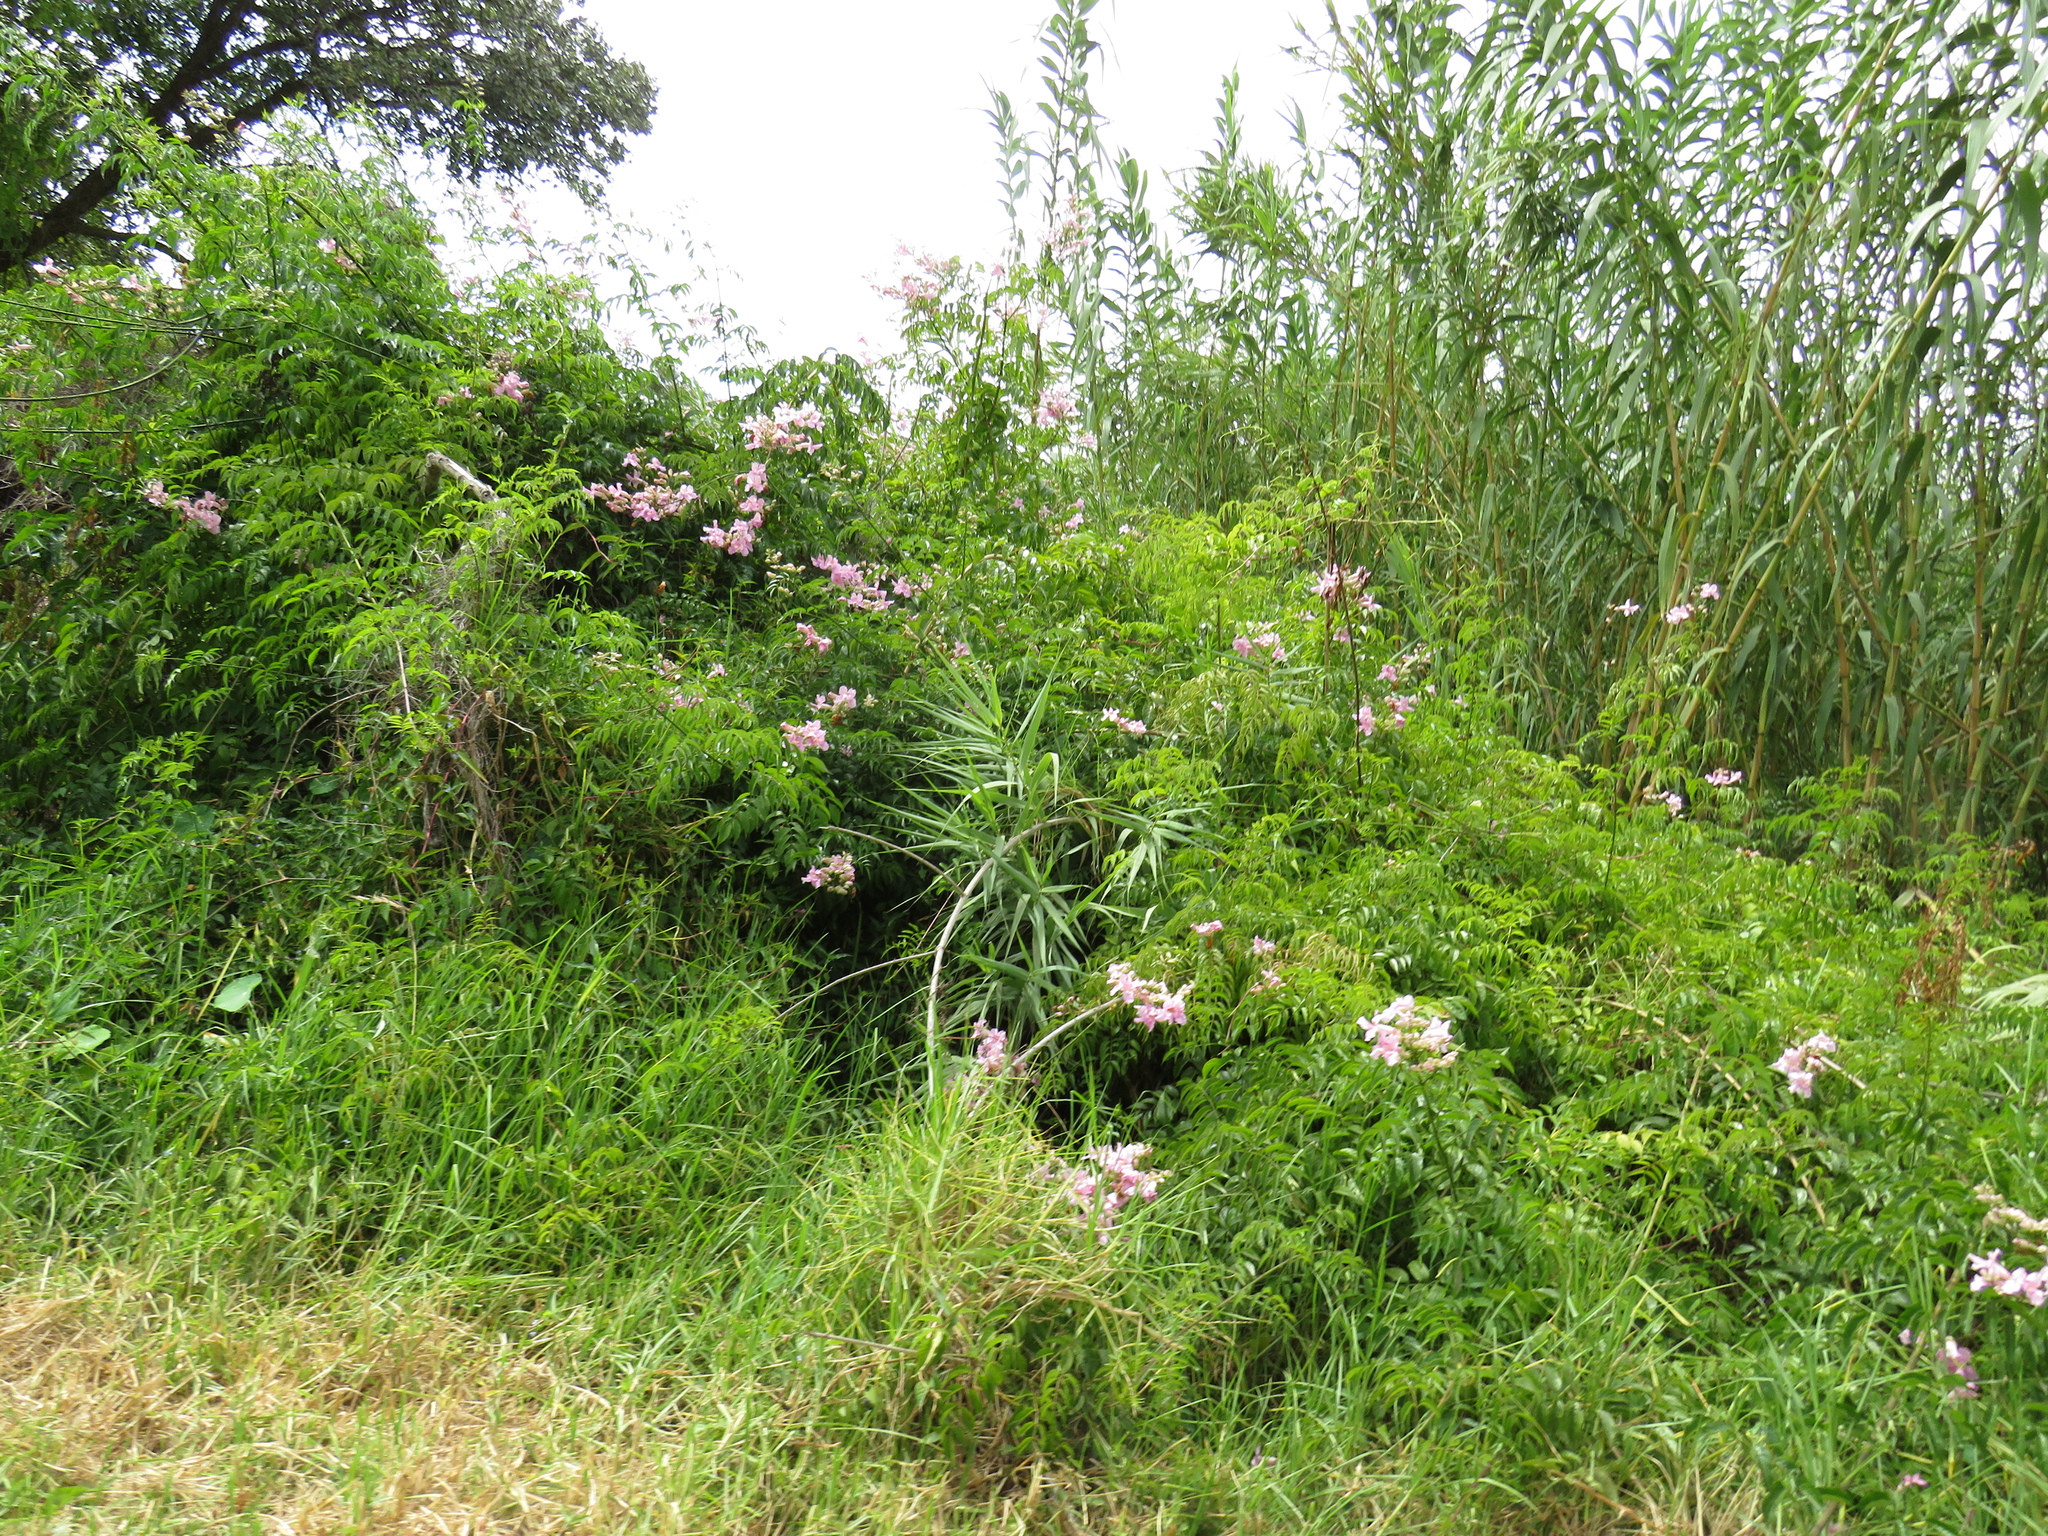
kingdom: Plantae
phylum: Tracheophyta
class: Magnoliopsida
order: Lamiales
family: Bignoniaceae
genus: Podranea
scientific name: Podranea ricasoliana
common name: Zimbabwe creeper
